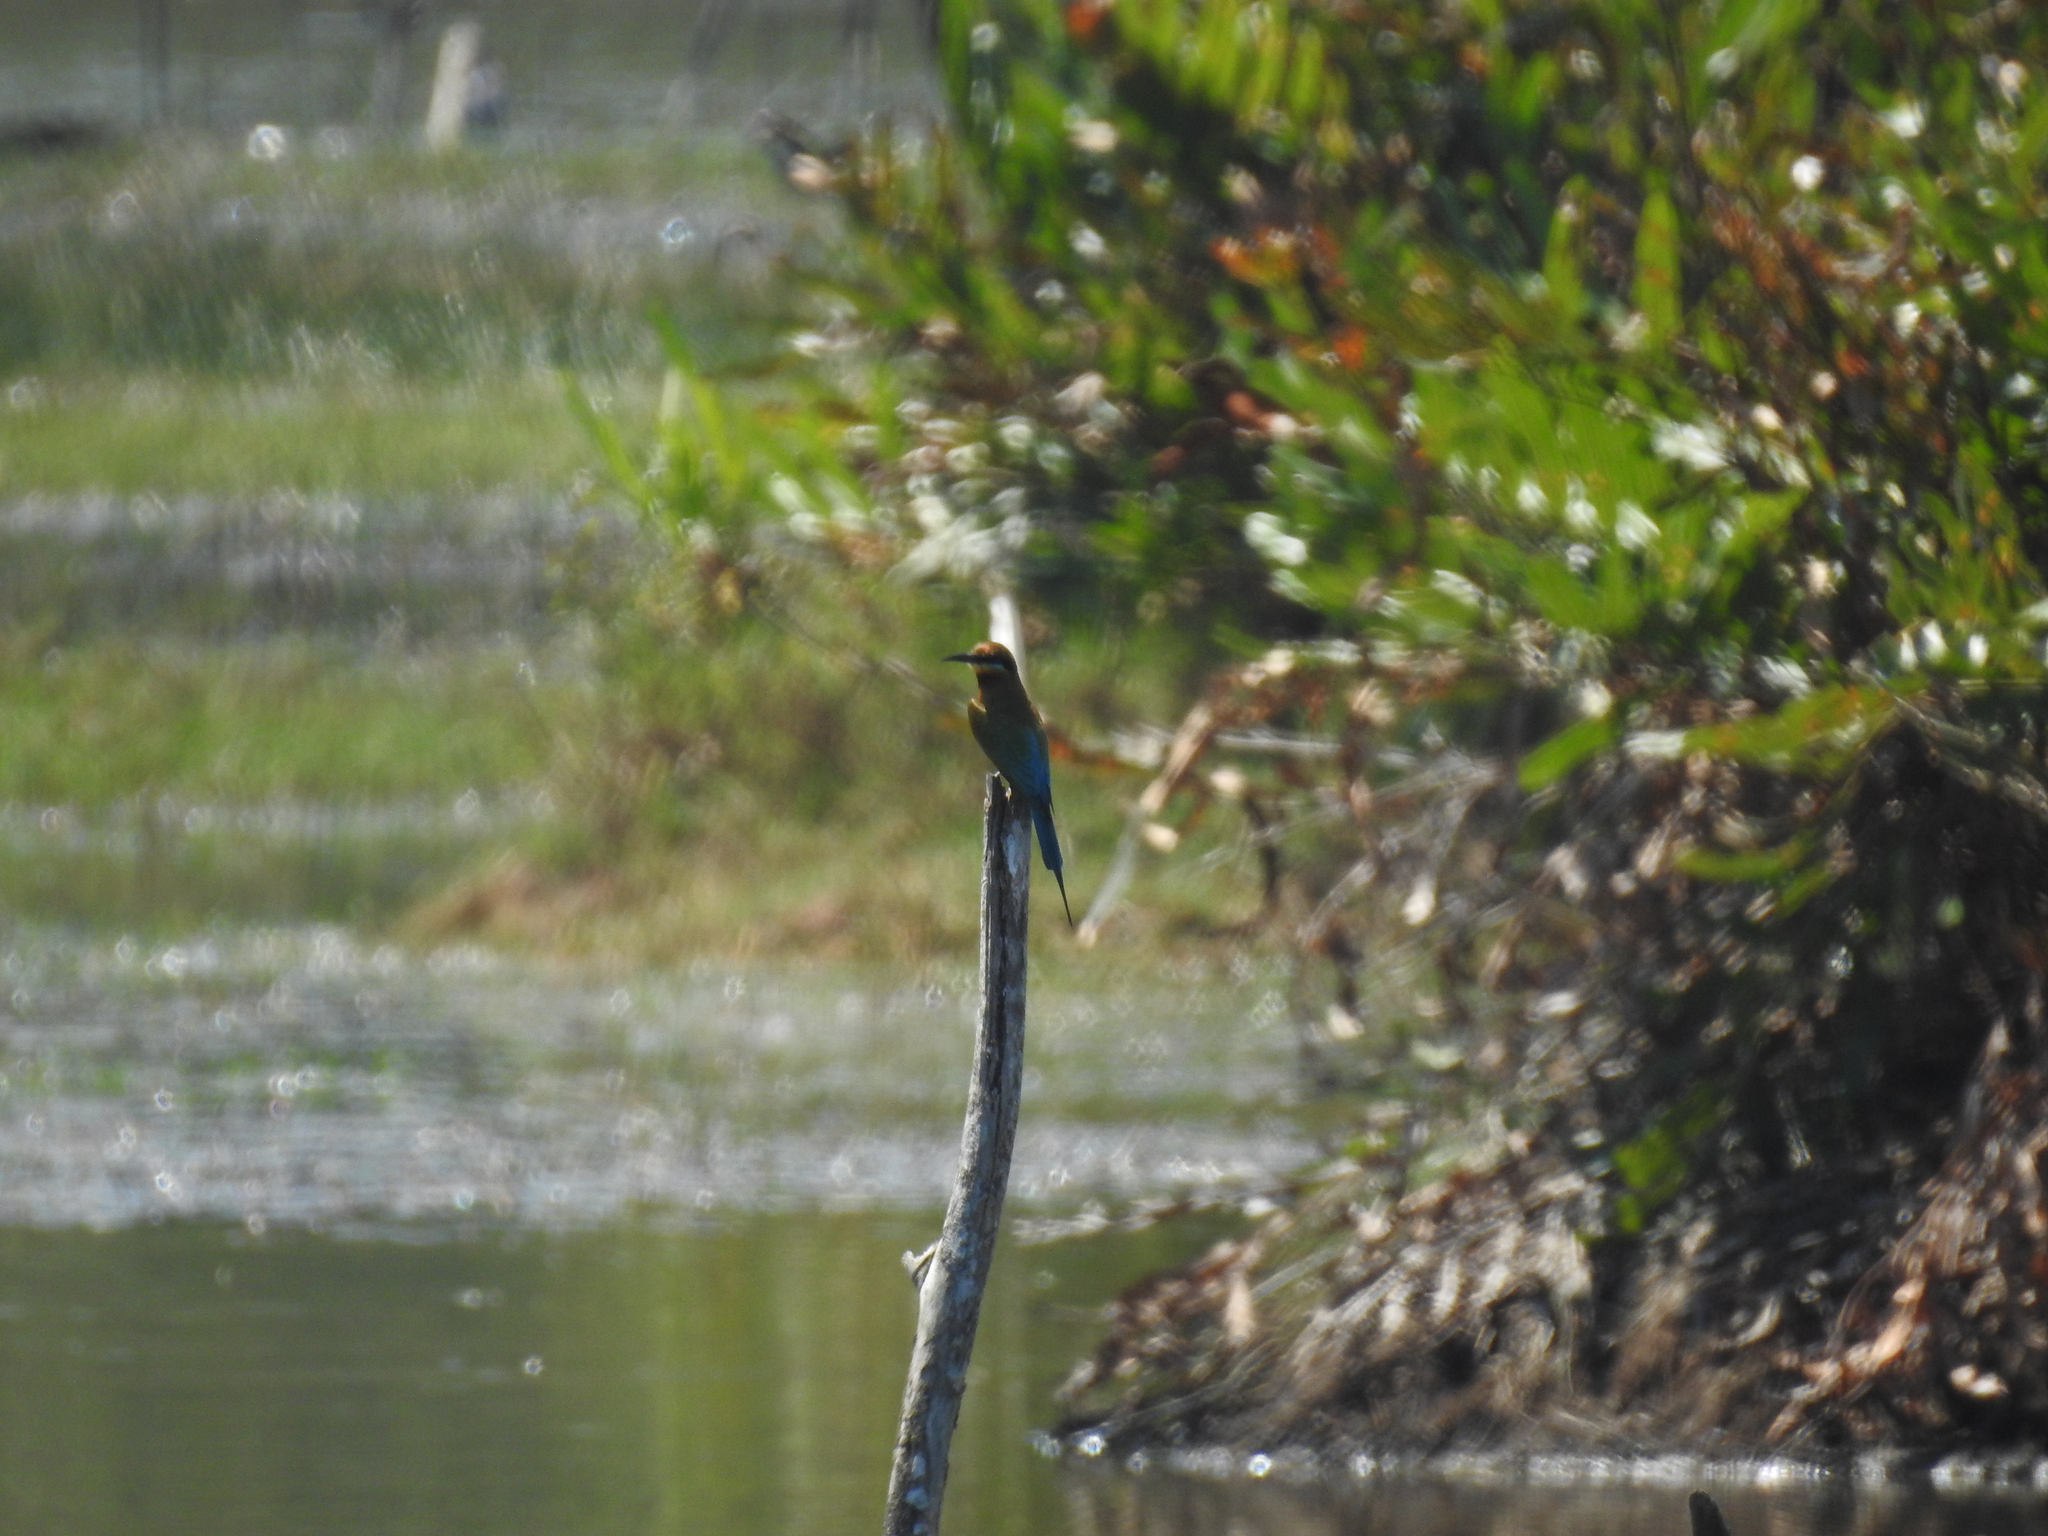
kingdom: Animalia
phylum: Chordata
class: Aves
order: Coraciiformes
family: Meropidae
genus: Merops
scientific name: Merops philippinus
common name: Blue-tailed bee-eater
